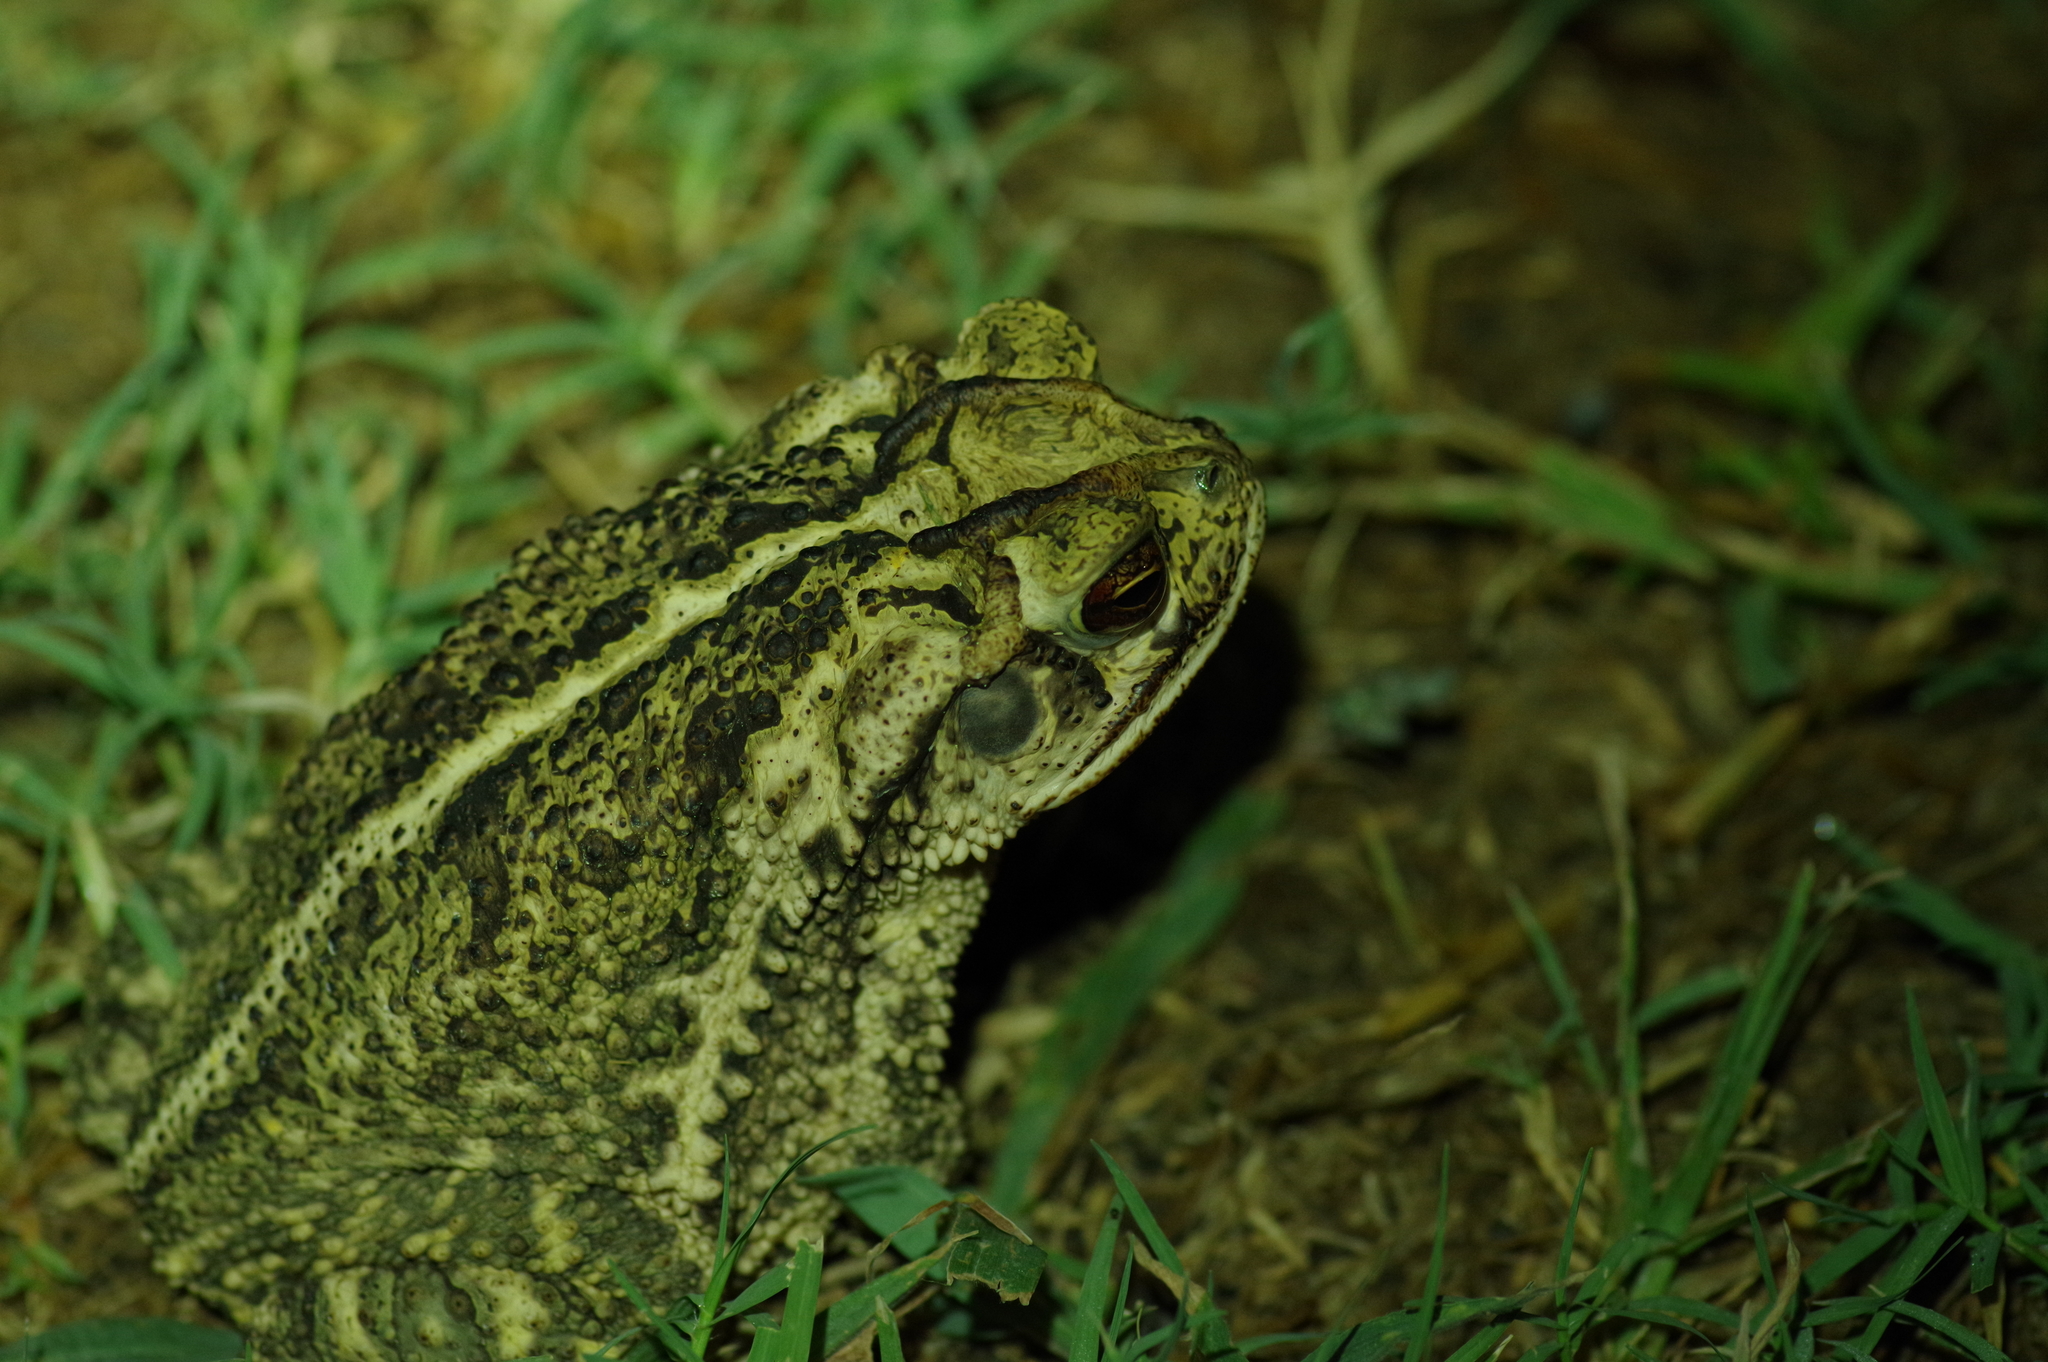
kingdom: Animalia
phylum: Chordata
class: Amphibia
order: Anura
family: Bufonidae
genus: Incilius
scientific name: Incilius nebulifer
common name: Gulf coast toad
